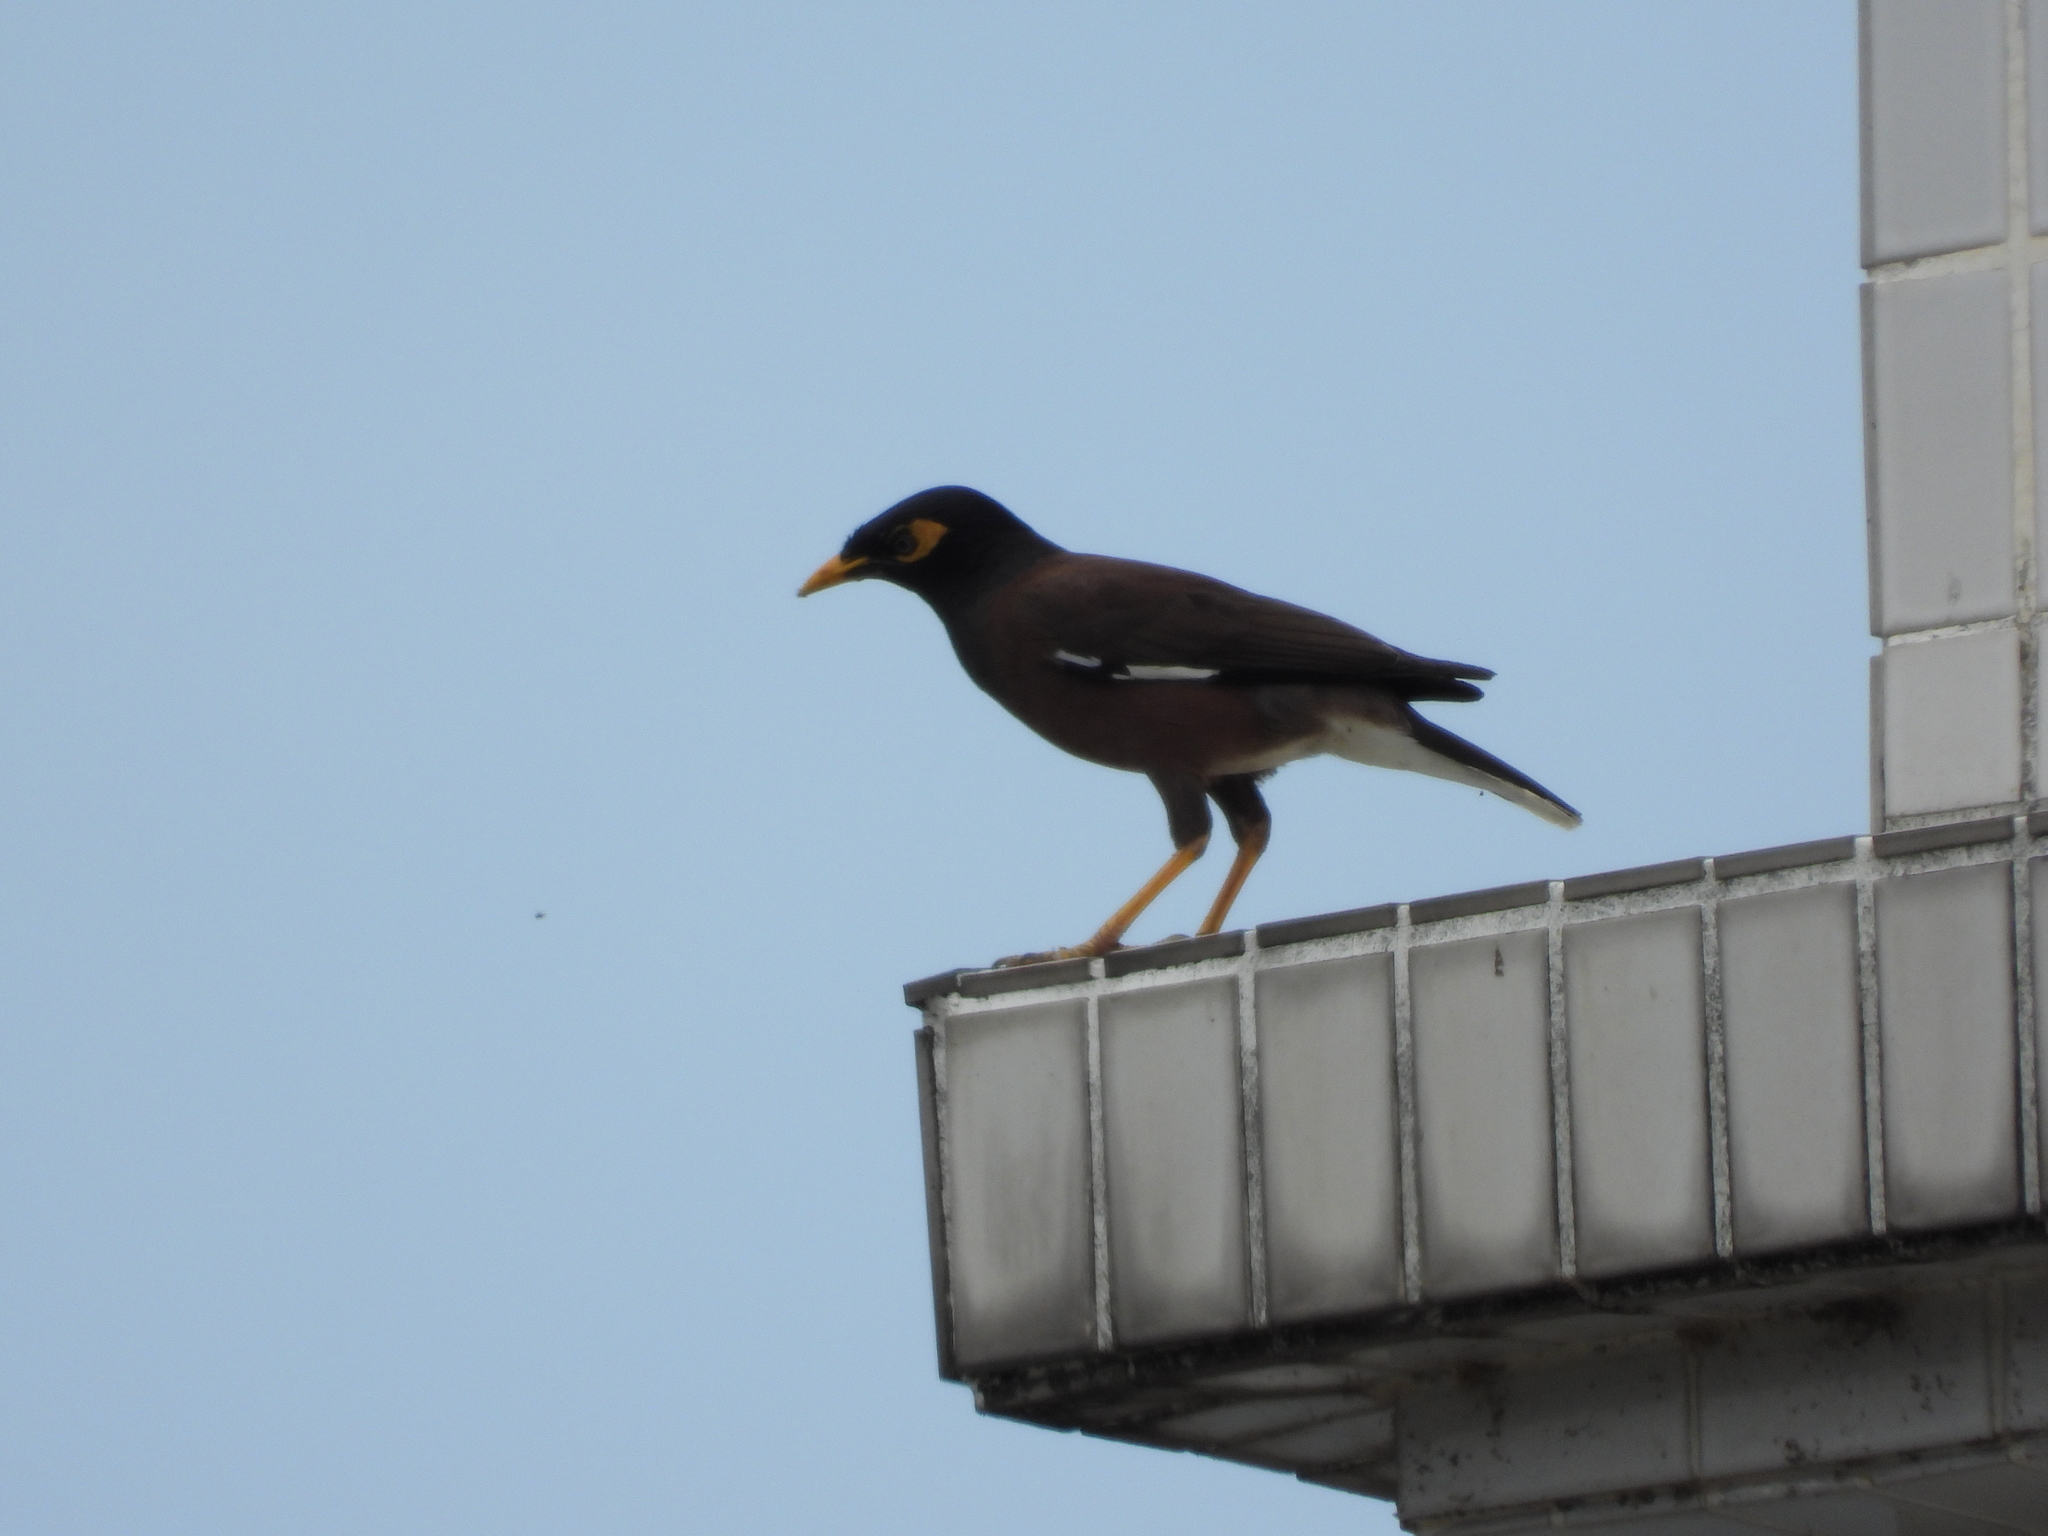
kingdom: Animalia
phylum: Chordata
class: Aves
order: Passeriformes
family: Sturnidae
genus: Acridotheres
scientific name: Acridotheres tristis
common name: Common myna
